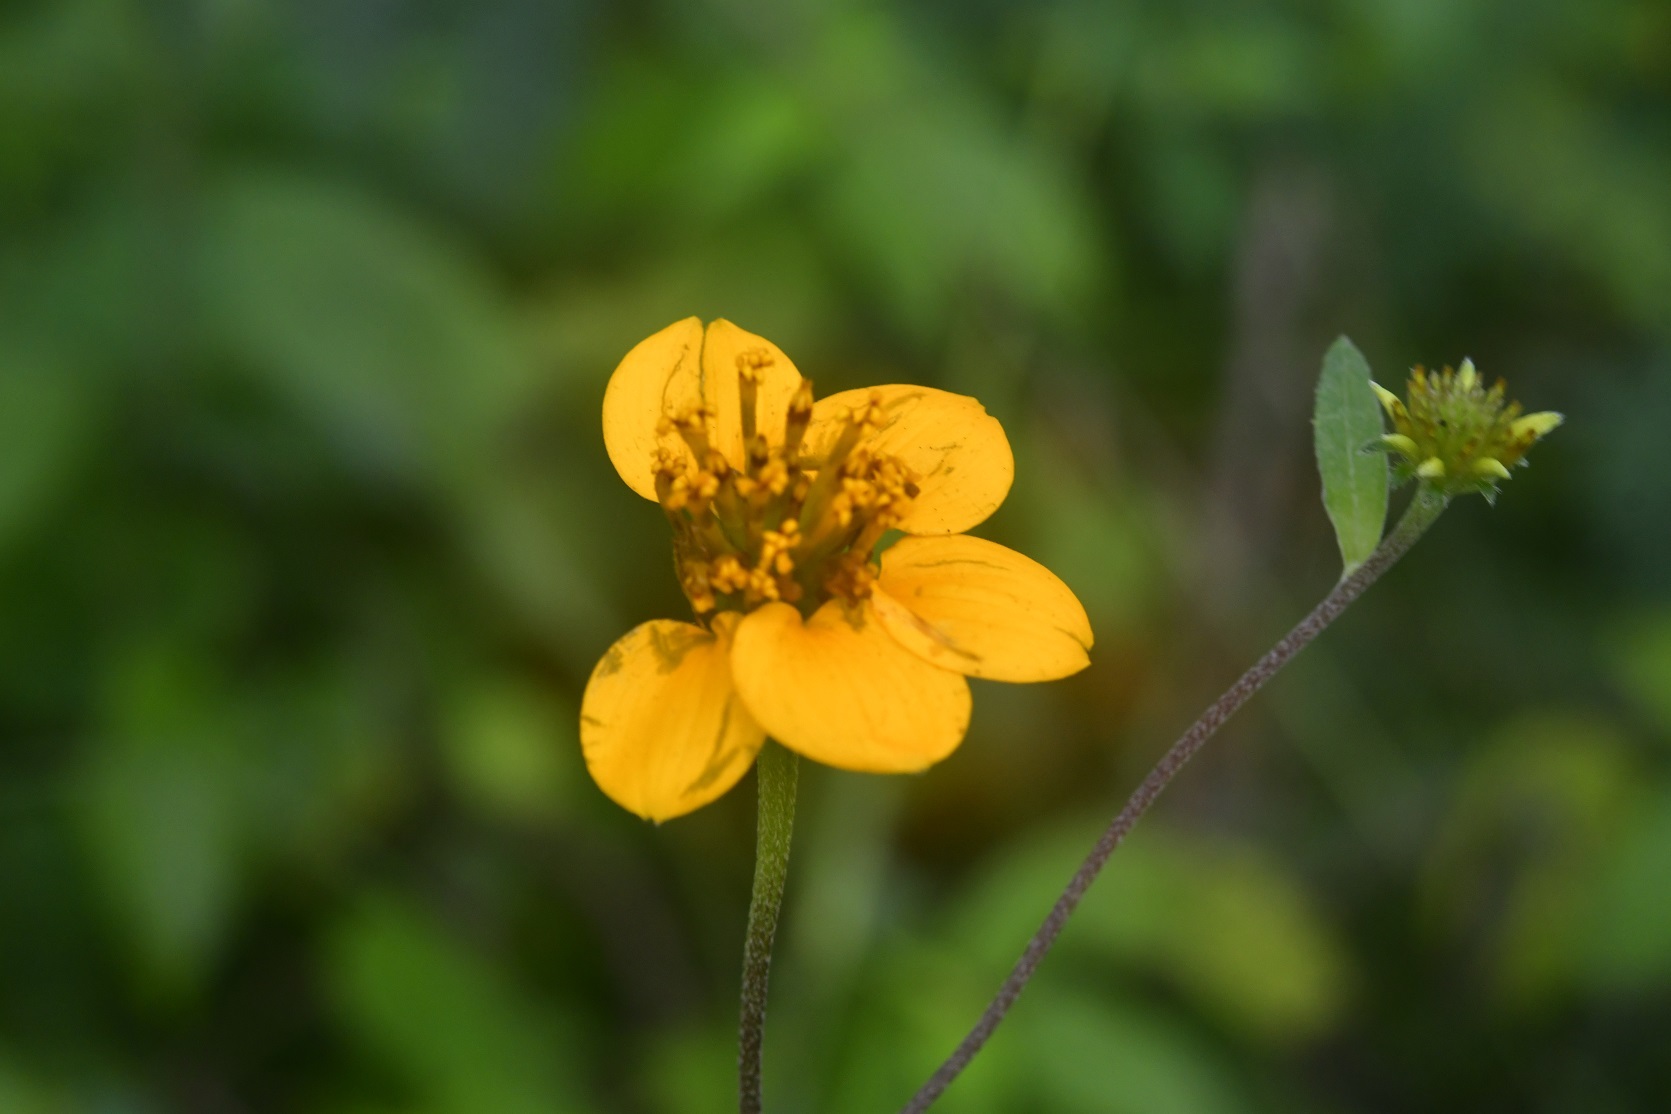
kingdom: Plantae
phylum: Tracheophyta
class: Magnoliopsida
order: Asterales
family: Asteraceae
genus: Sclerocarpus
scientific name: Sclerocarpus uniserialis
